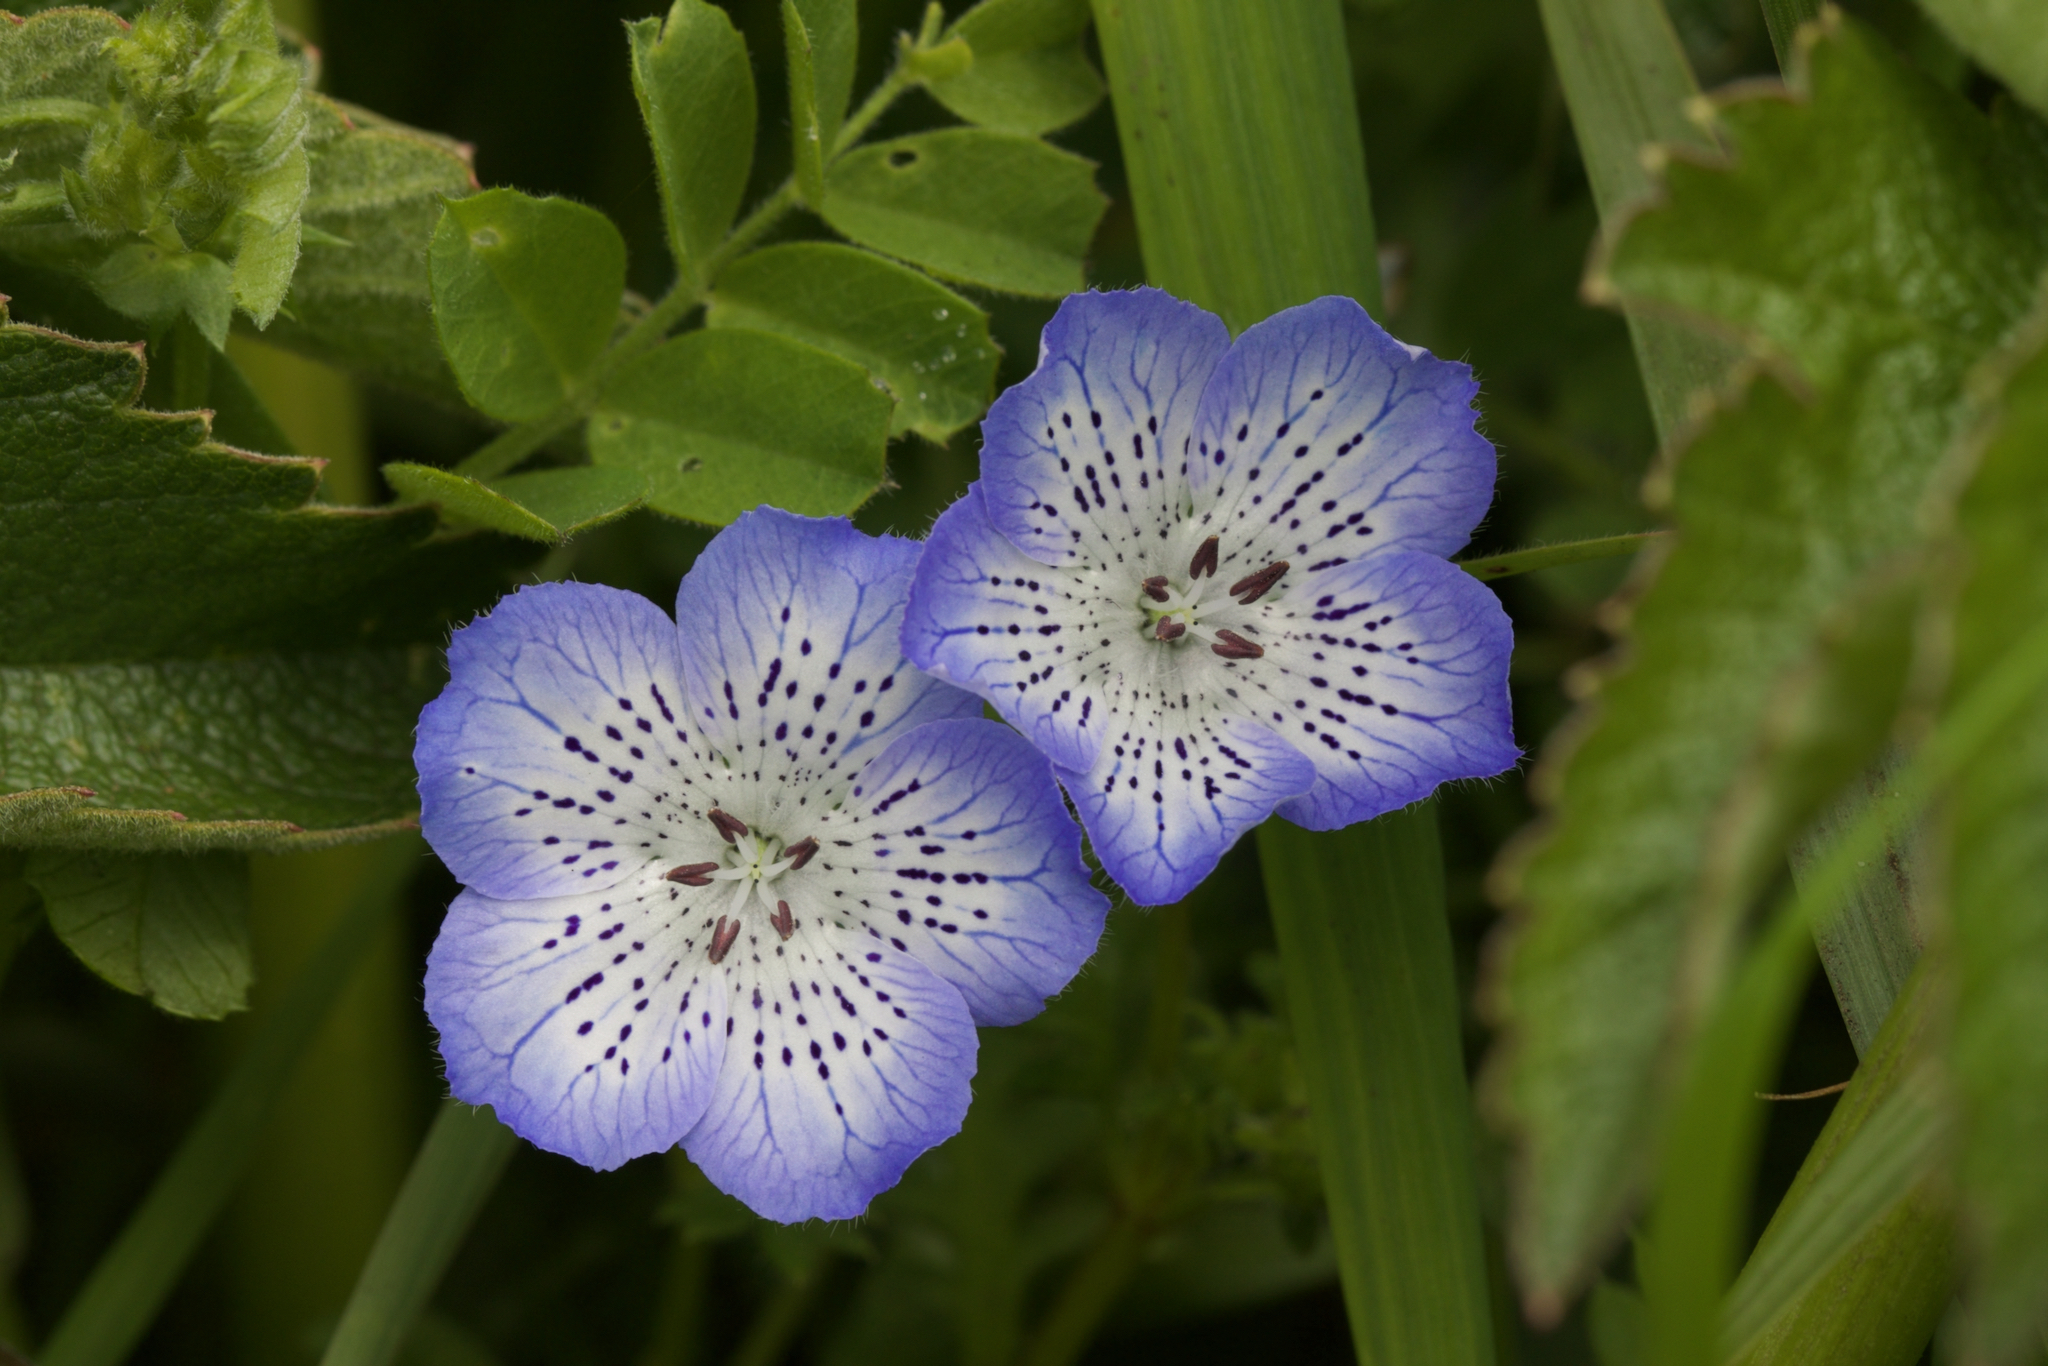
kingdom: Plantae
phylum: Tracheophyta
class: Magnoliopsida
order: Boraginales
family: Hydrophyllaceae
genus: Nemophila
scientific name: Nemophila menziesii
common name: Baby's-blue-eyes
